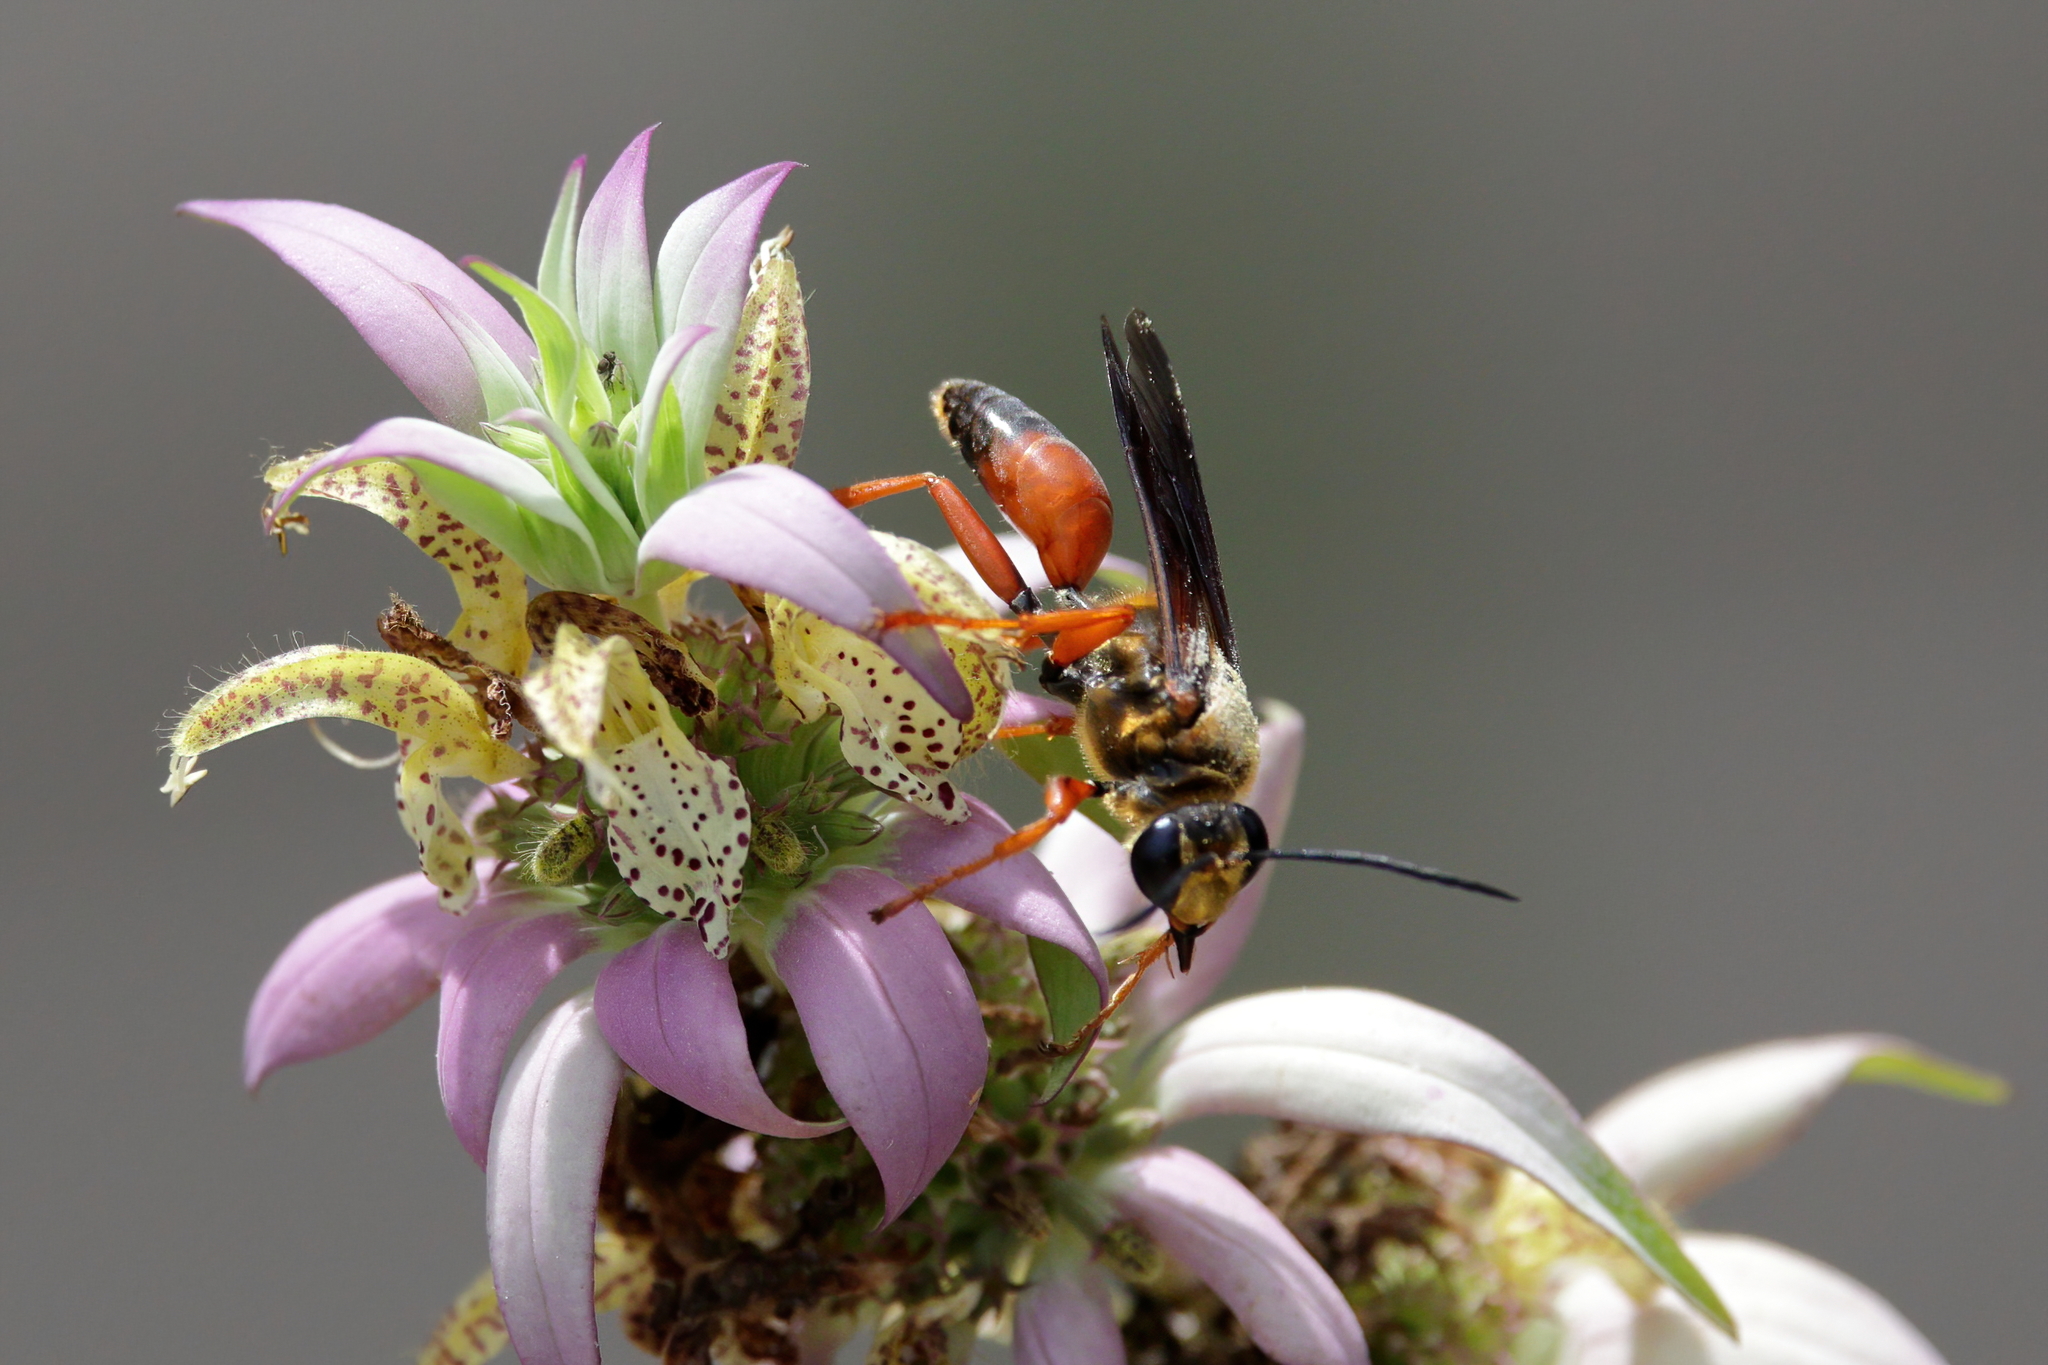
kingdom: Animalia
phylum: Arthropoda
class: Insecta
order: Hymenoptera
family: Sphecidae
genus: Sphex
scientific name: Sphex ichneumoneus
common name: Great golden digger wasp
